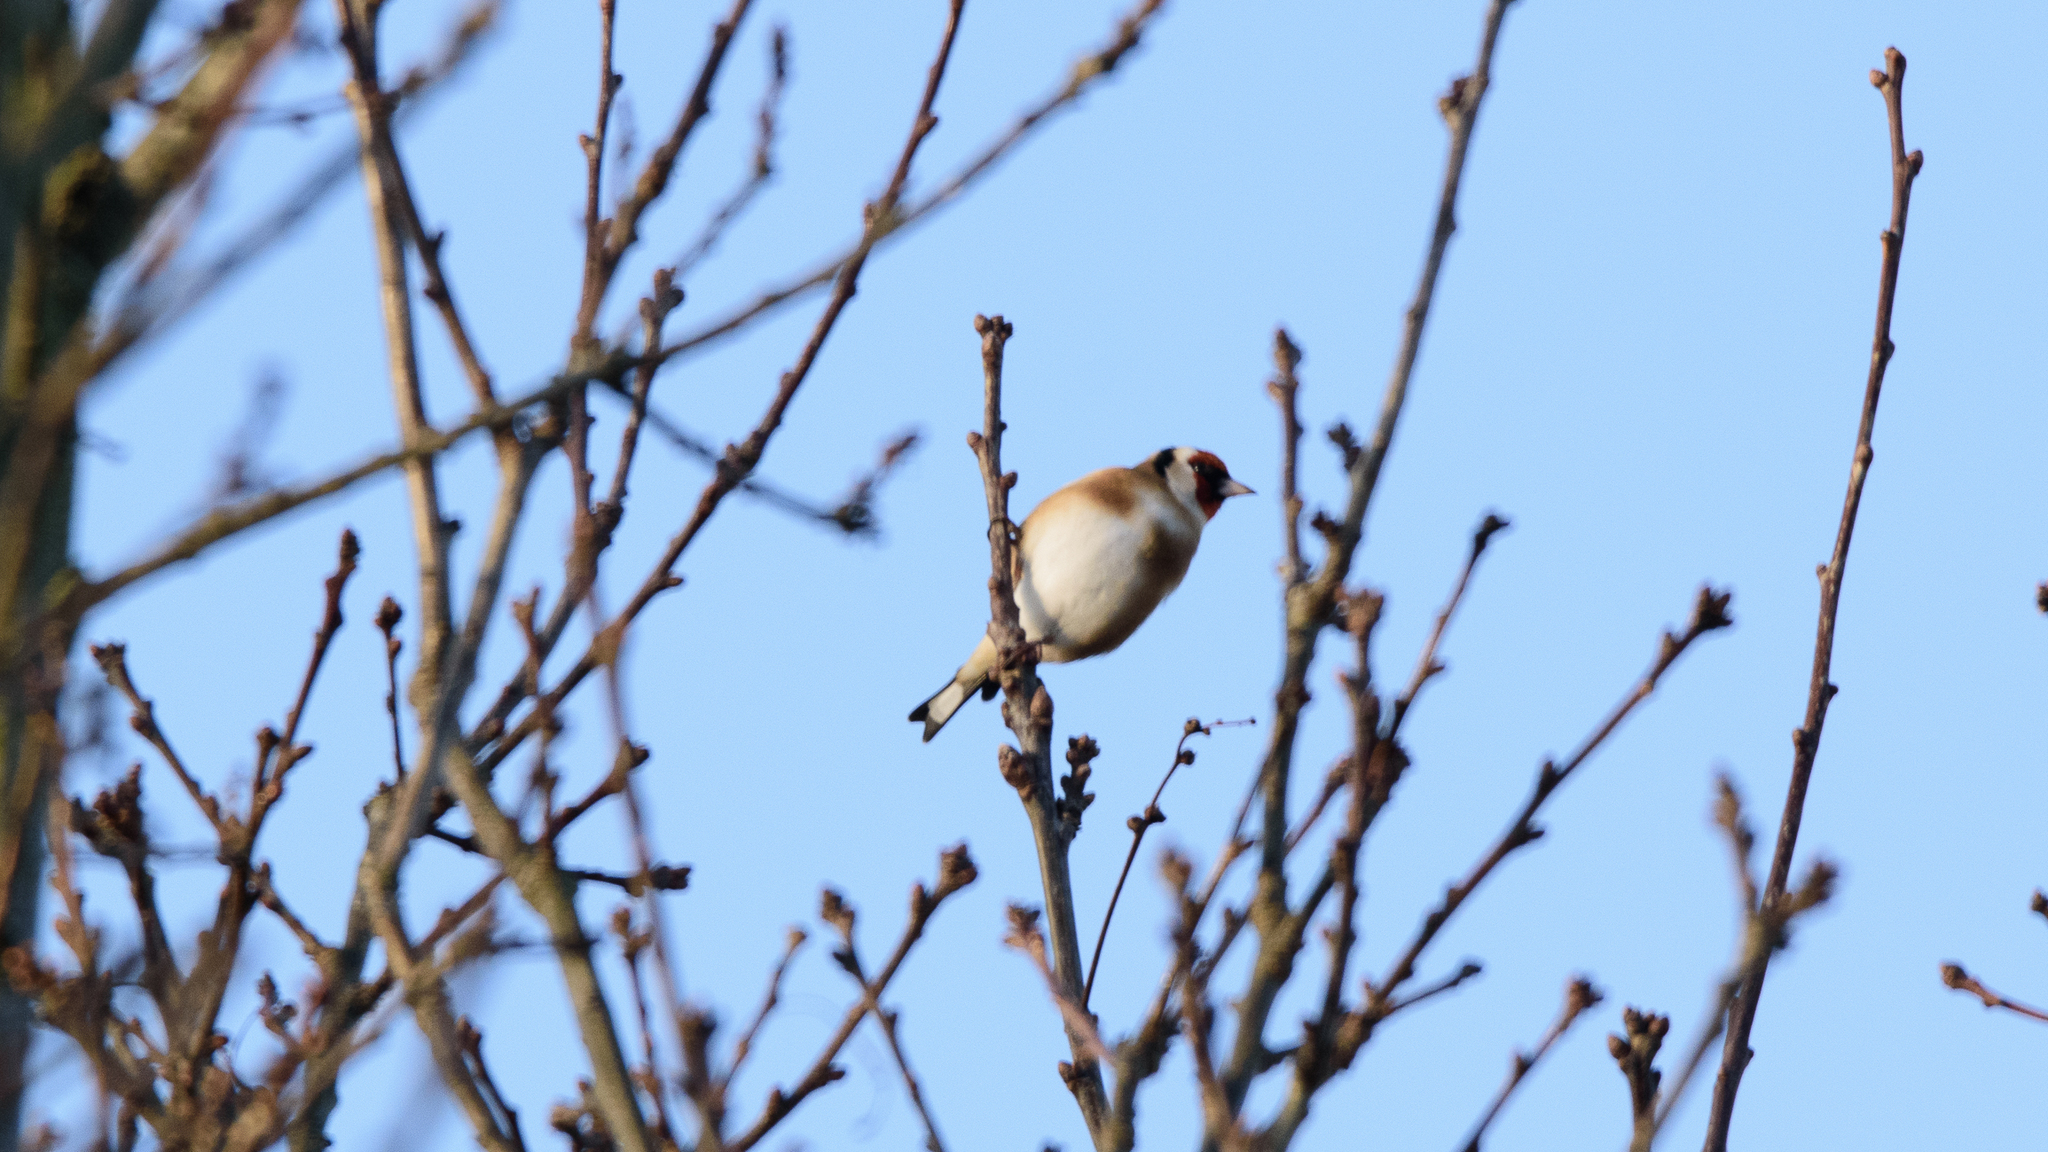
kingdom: Animalia
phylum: Chordata
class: Aves
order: Passeriformes
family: Fringillidae
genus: Carduelis
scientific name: Carduelis carduelis
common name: European goldfinch
